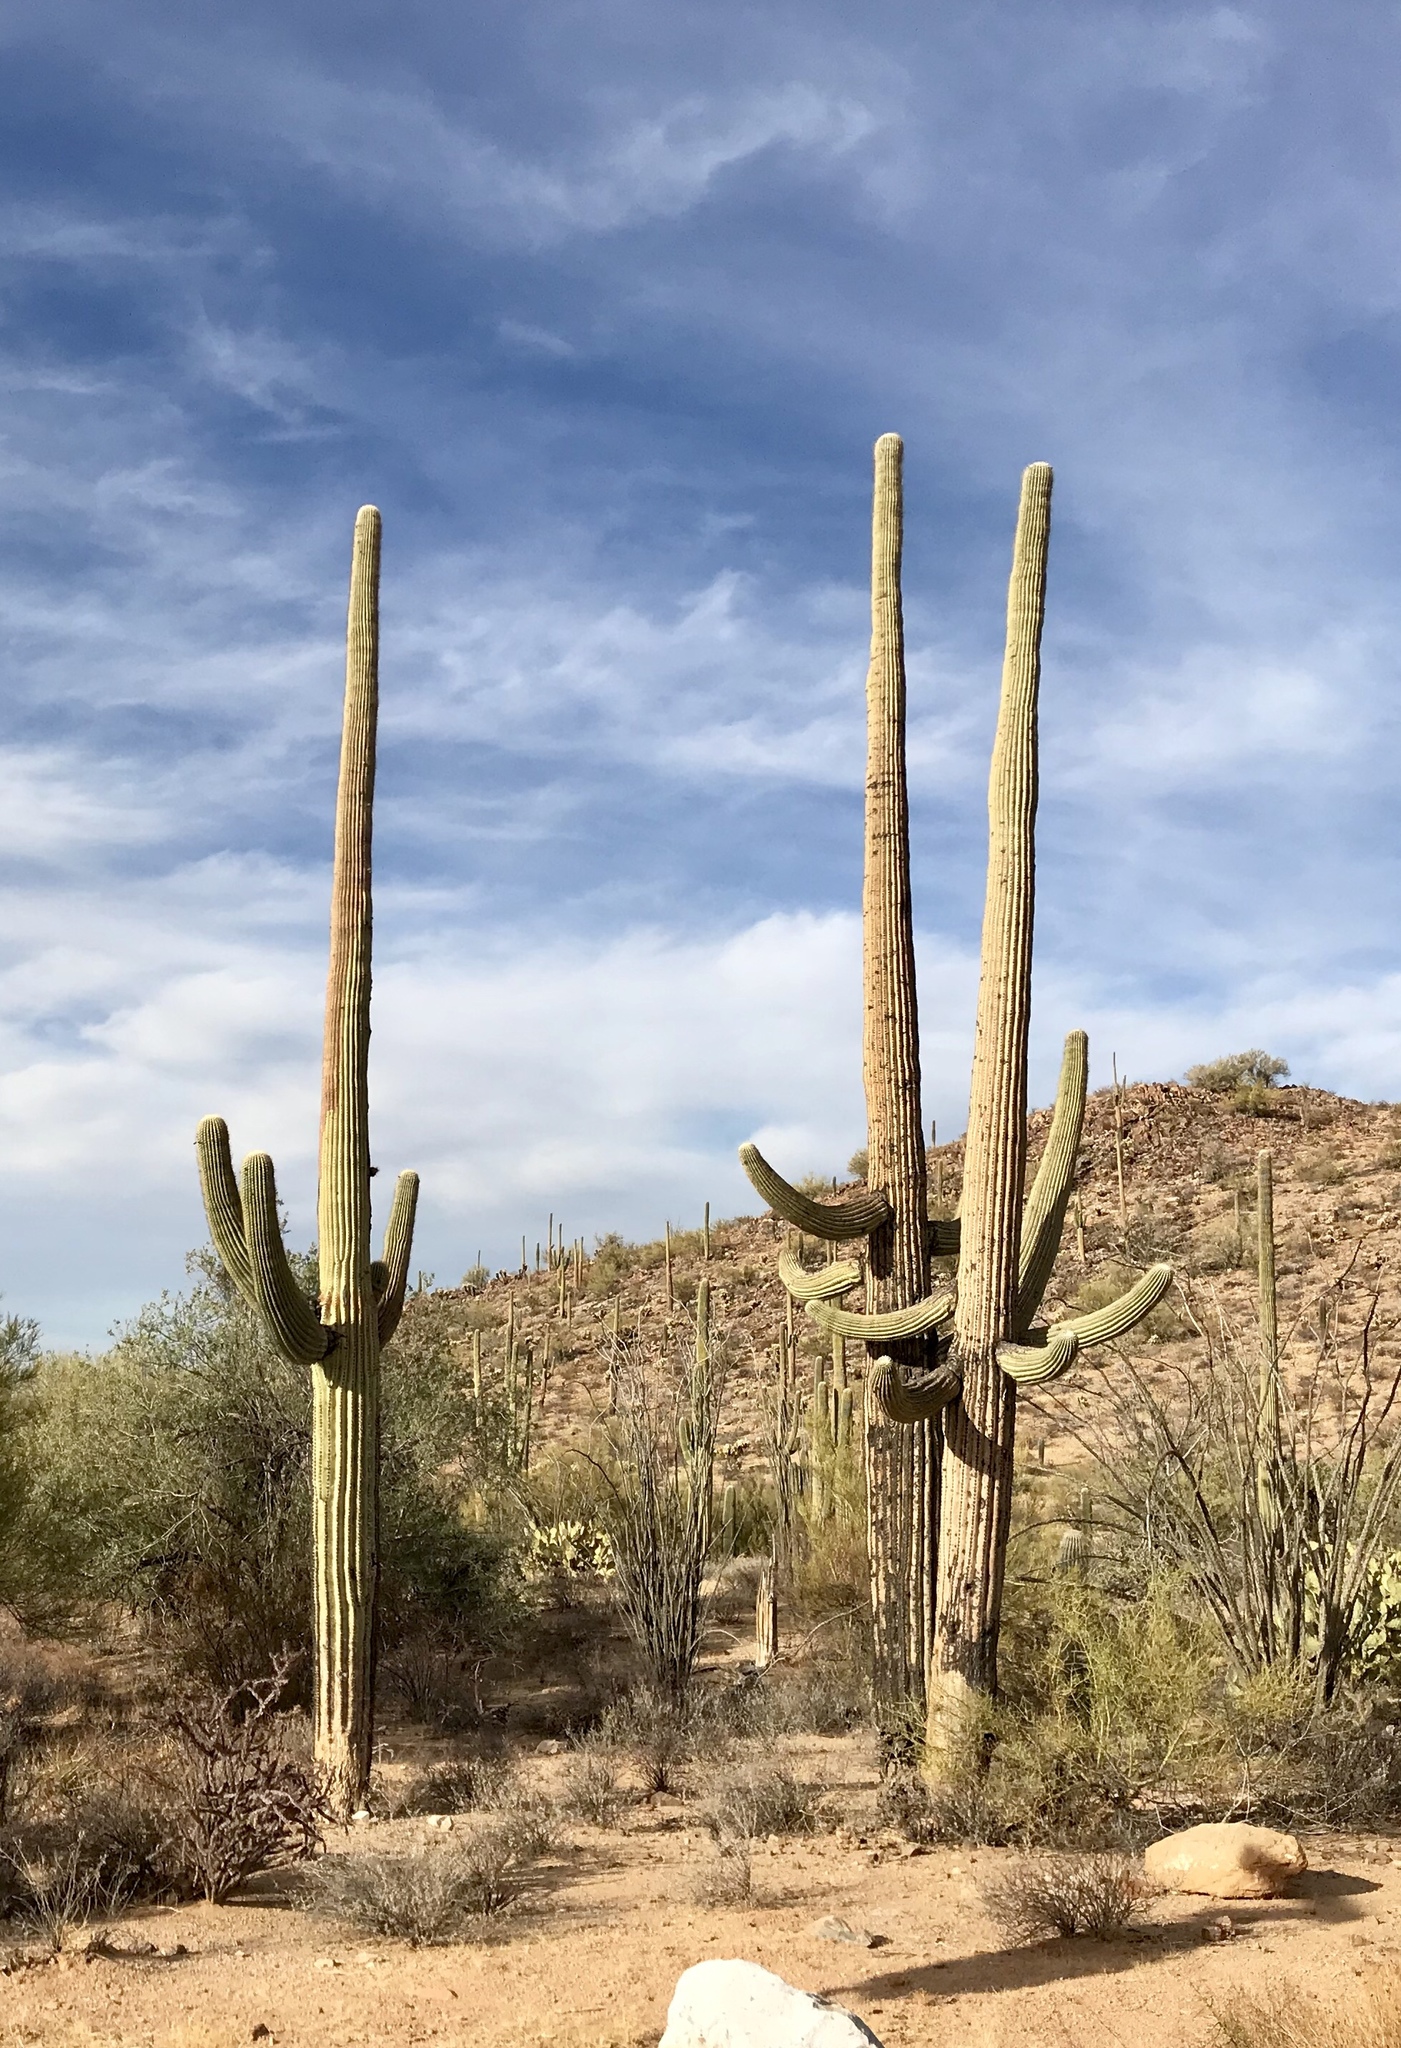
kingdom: Plantae
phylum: Tracheophyta
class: Magnoliopsida
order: Caryophyllales
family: Cactaceae
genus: Carnegiea
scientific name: Carnegiea gigantea
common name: Saguaro
